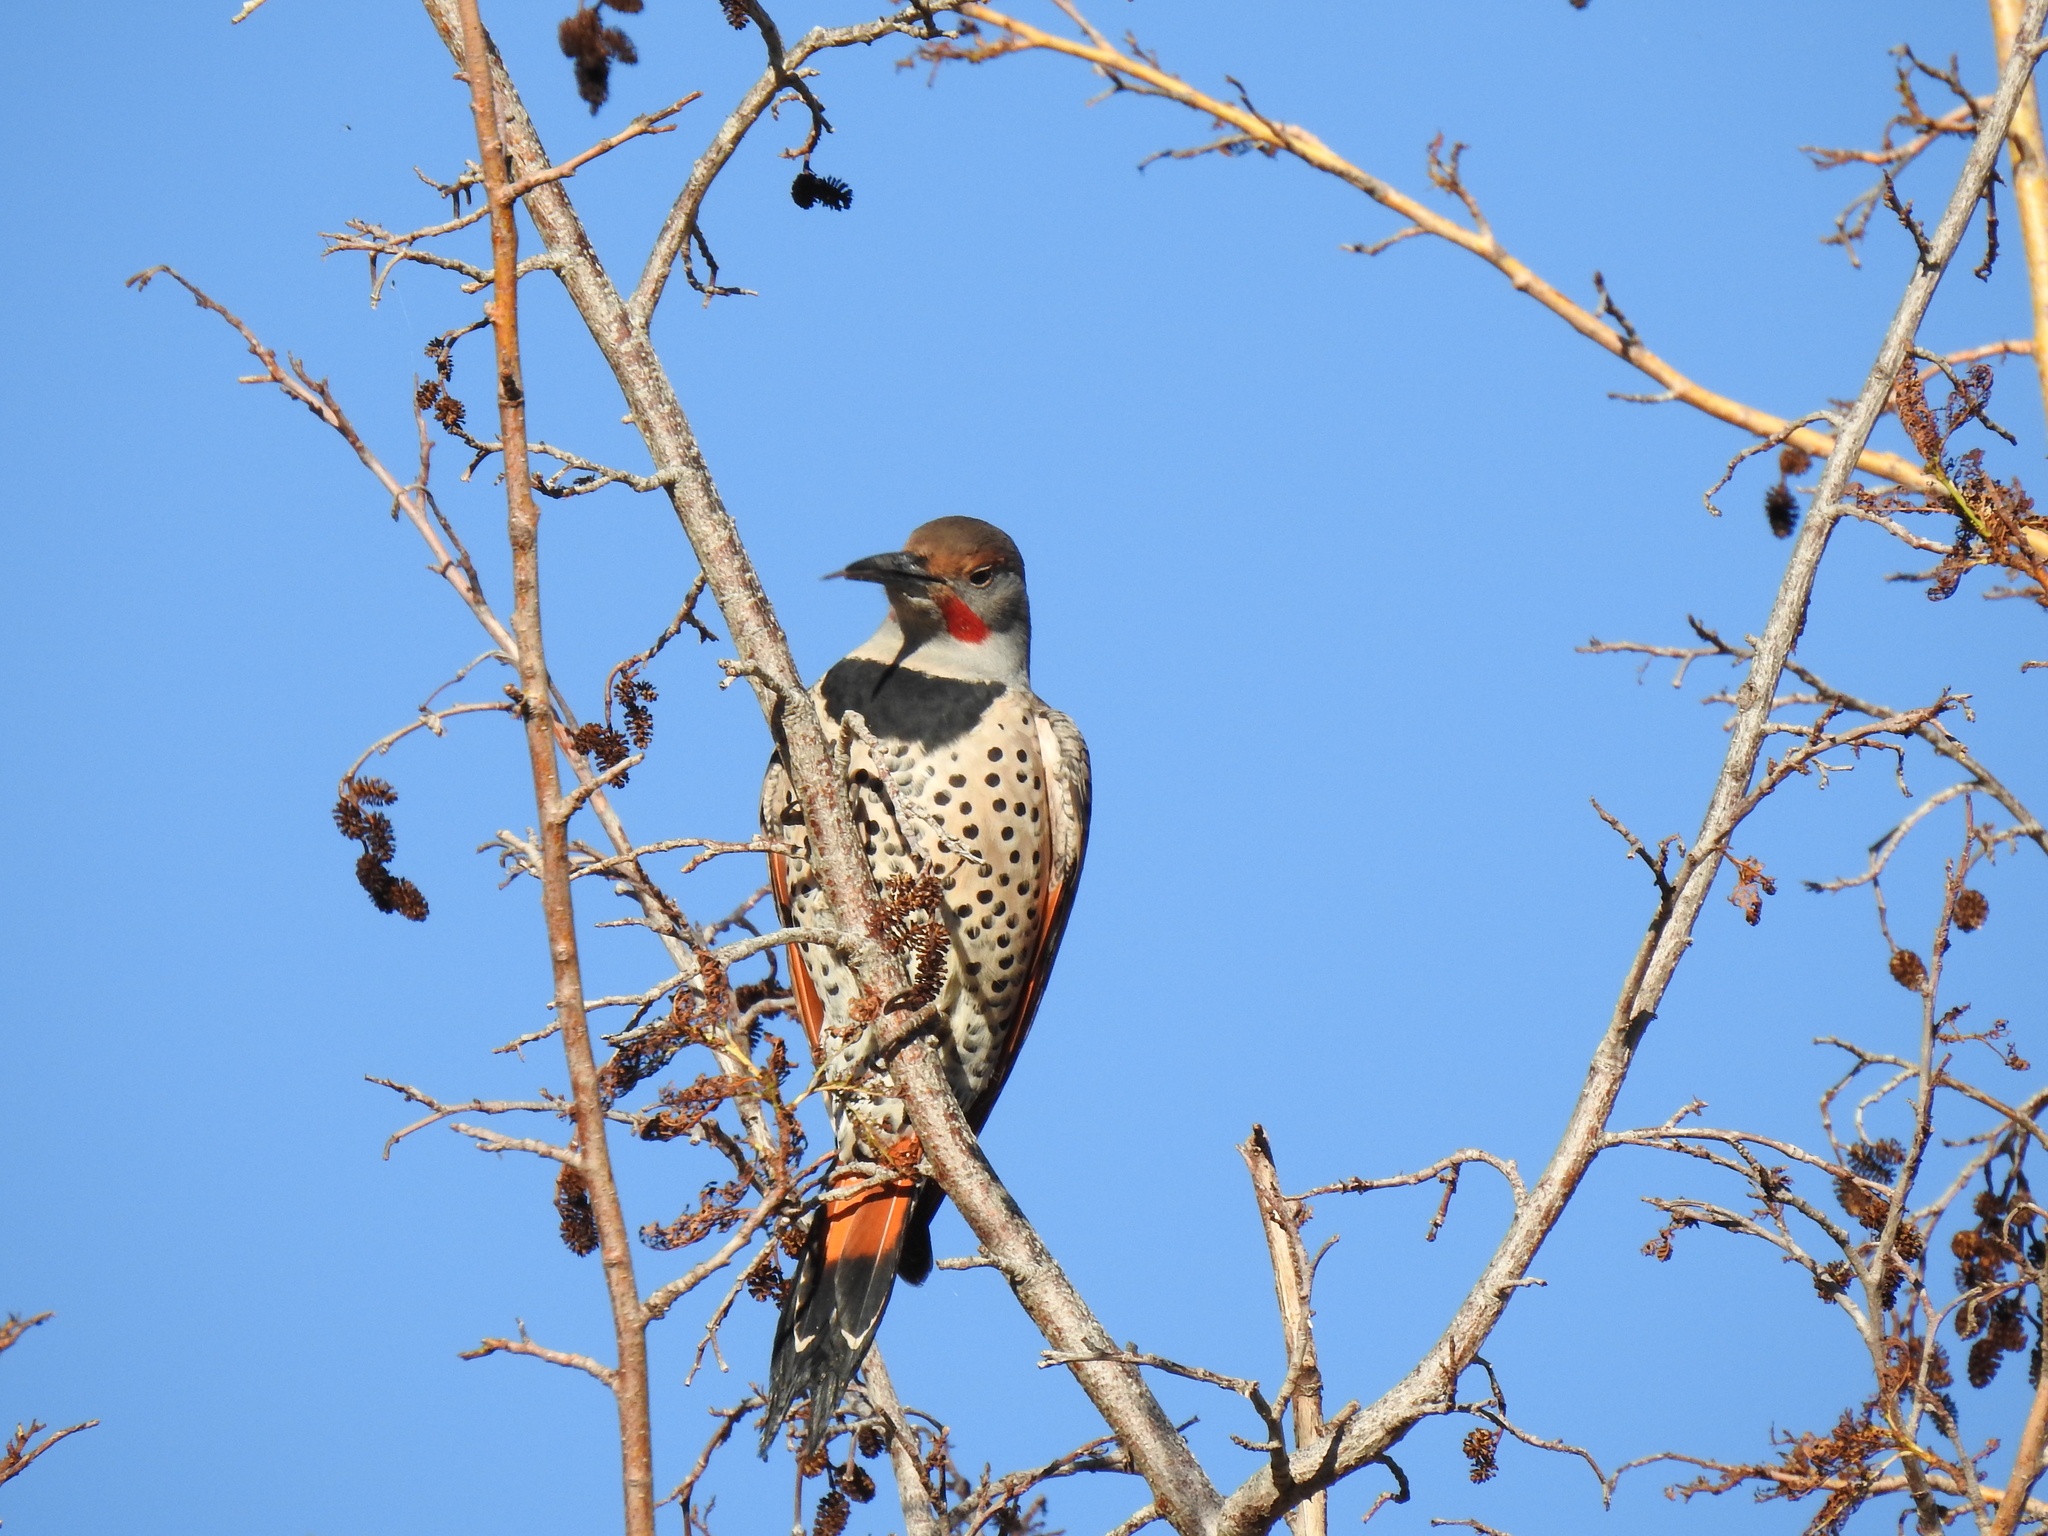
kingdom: Animalia
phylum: Chordata
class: Aves
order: Piciformes
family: Picidae
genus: Colaptes
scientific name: Colaptes auratus
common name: Northern flicker
